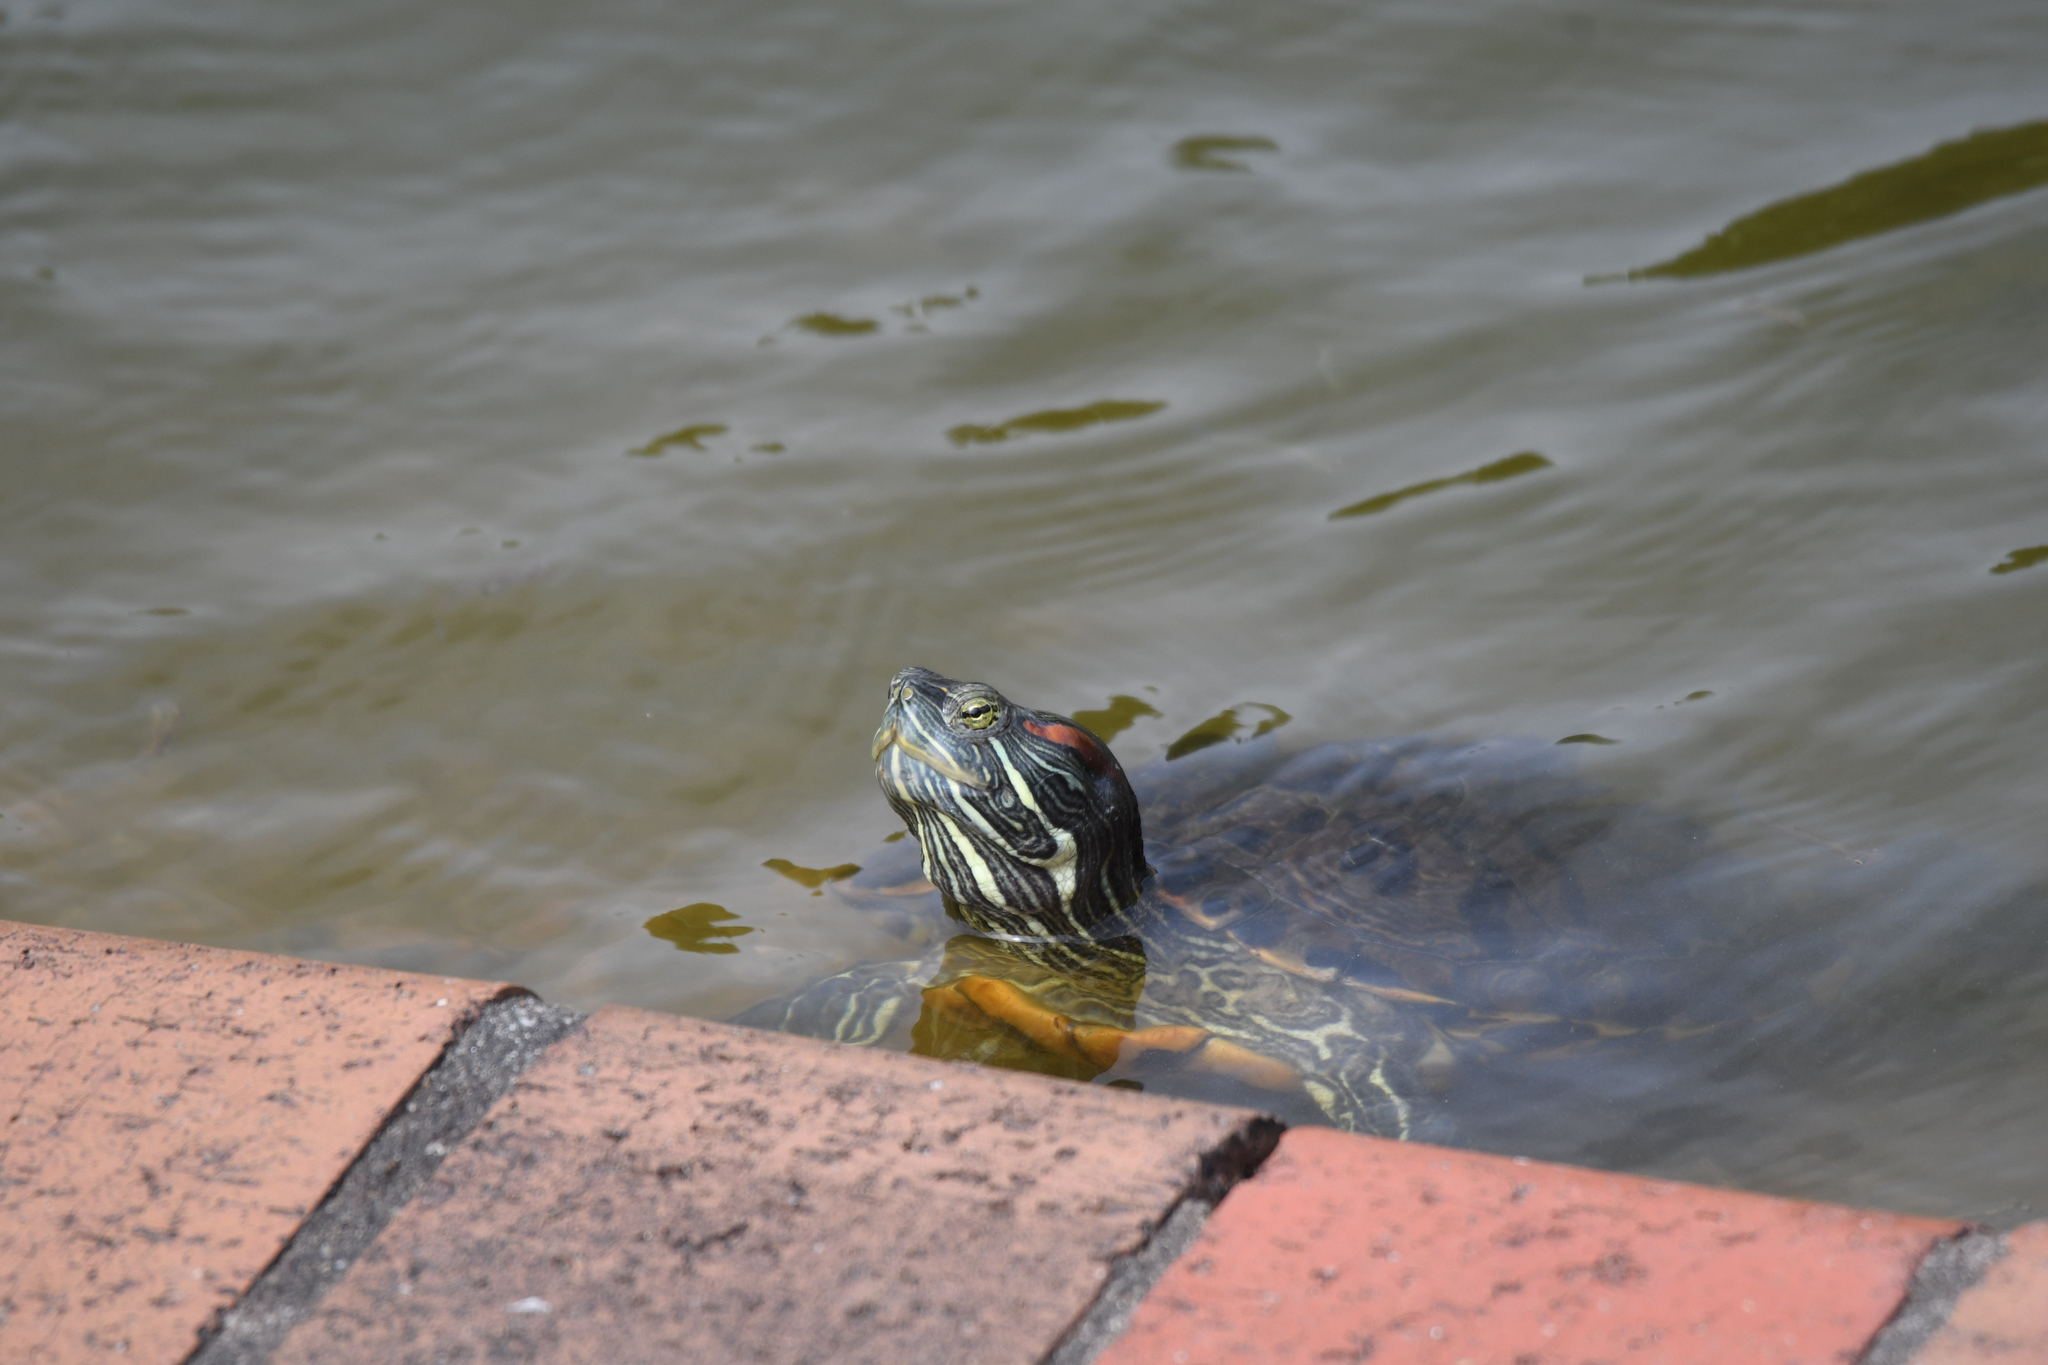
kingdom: Animalia
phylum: Chordata
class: Testudines
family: Emydidae
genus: Trachemys
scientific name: Trachemys scripta
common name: Slider
